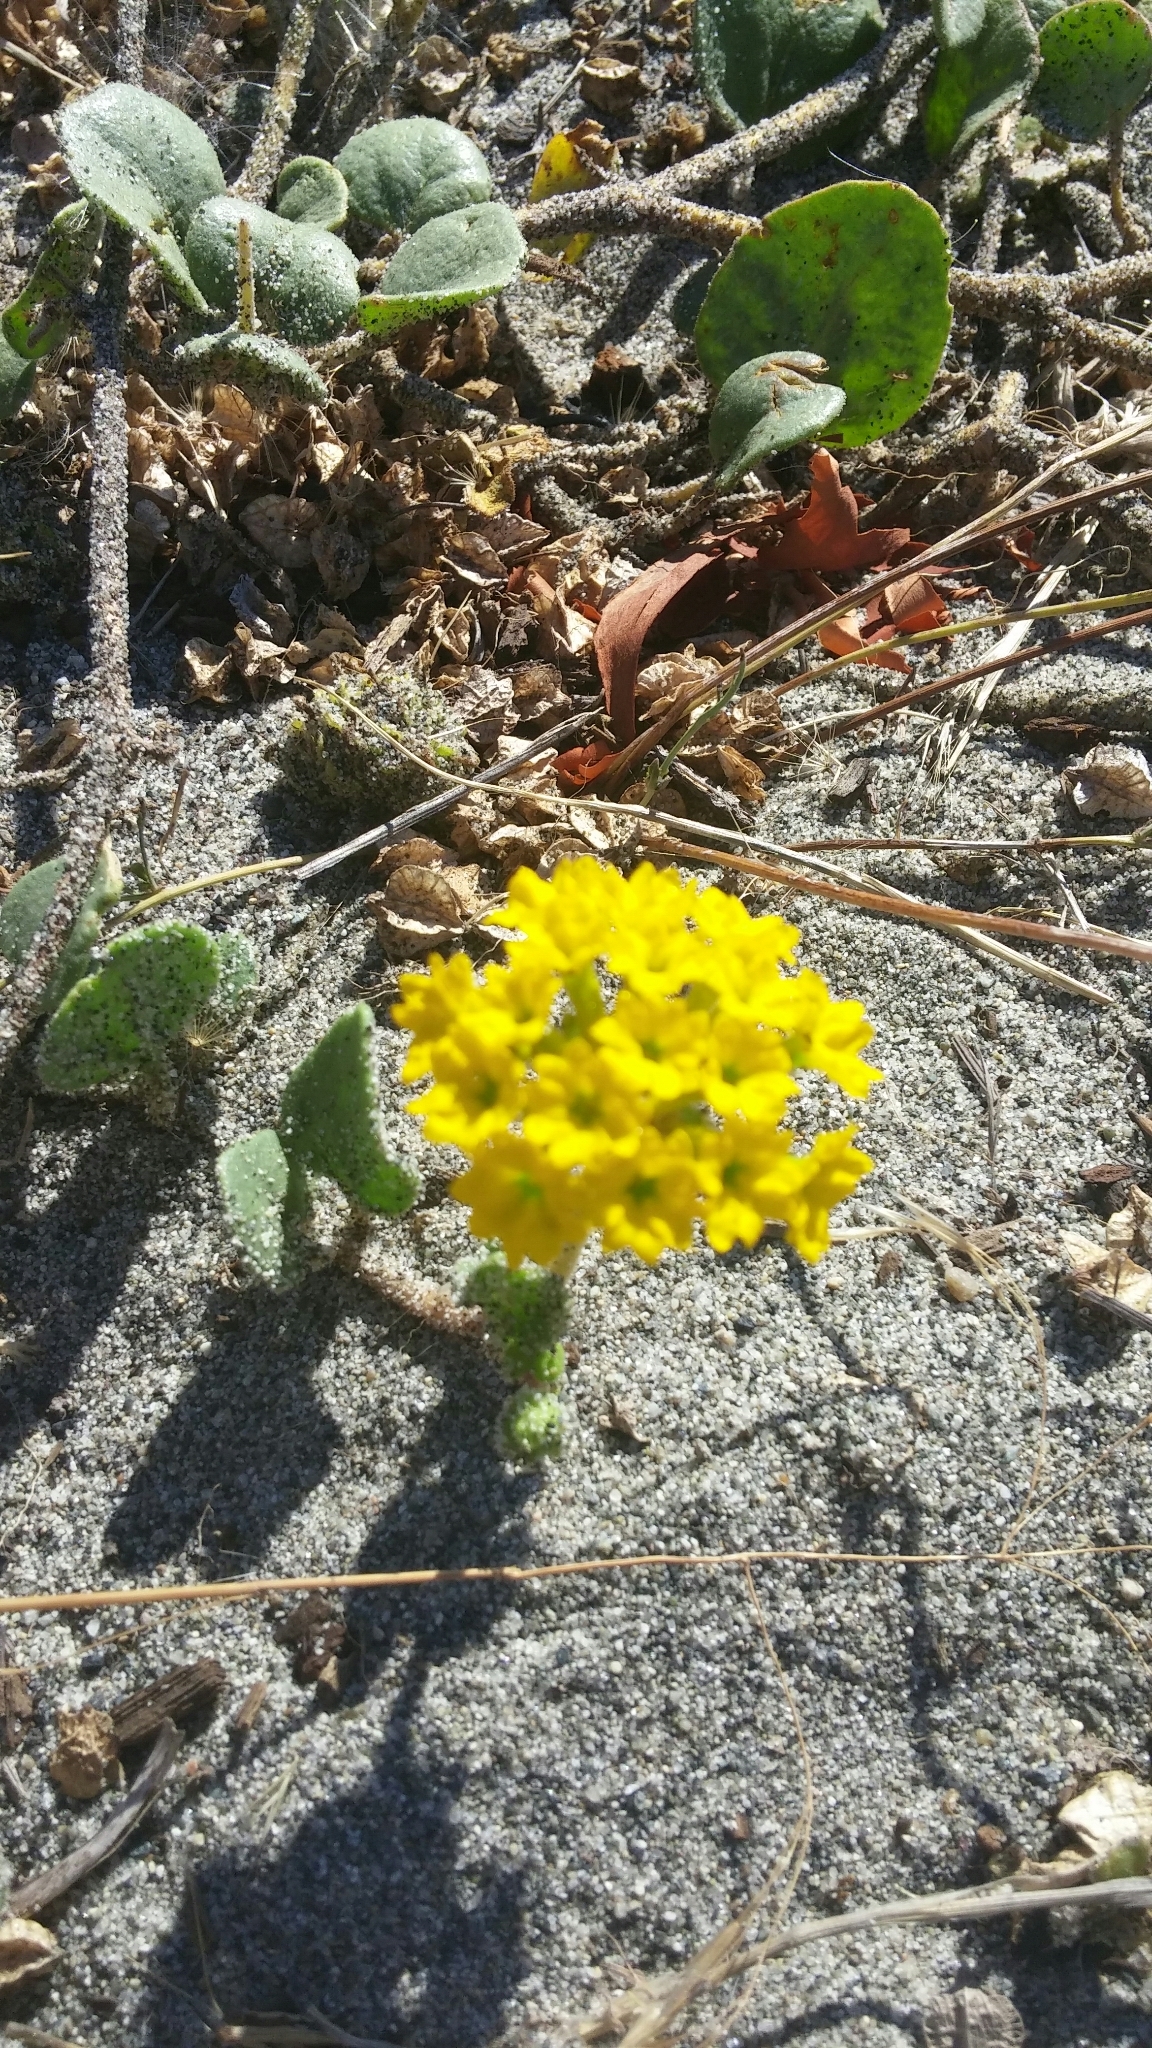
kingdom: Plantae
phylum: Tracheophyta
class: Magnoliopsida
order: Caryophyllales
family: Nyctaginaceae
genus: Abronia
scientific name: Abronia latifolia
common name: Yellow sand-verbena
